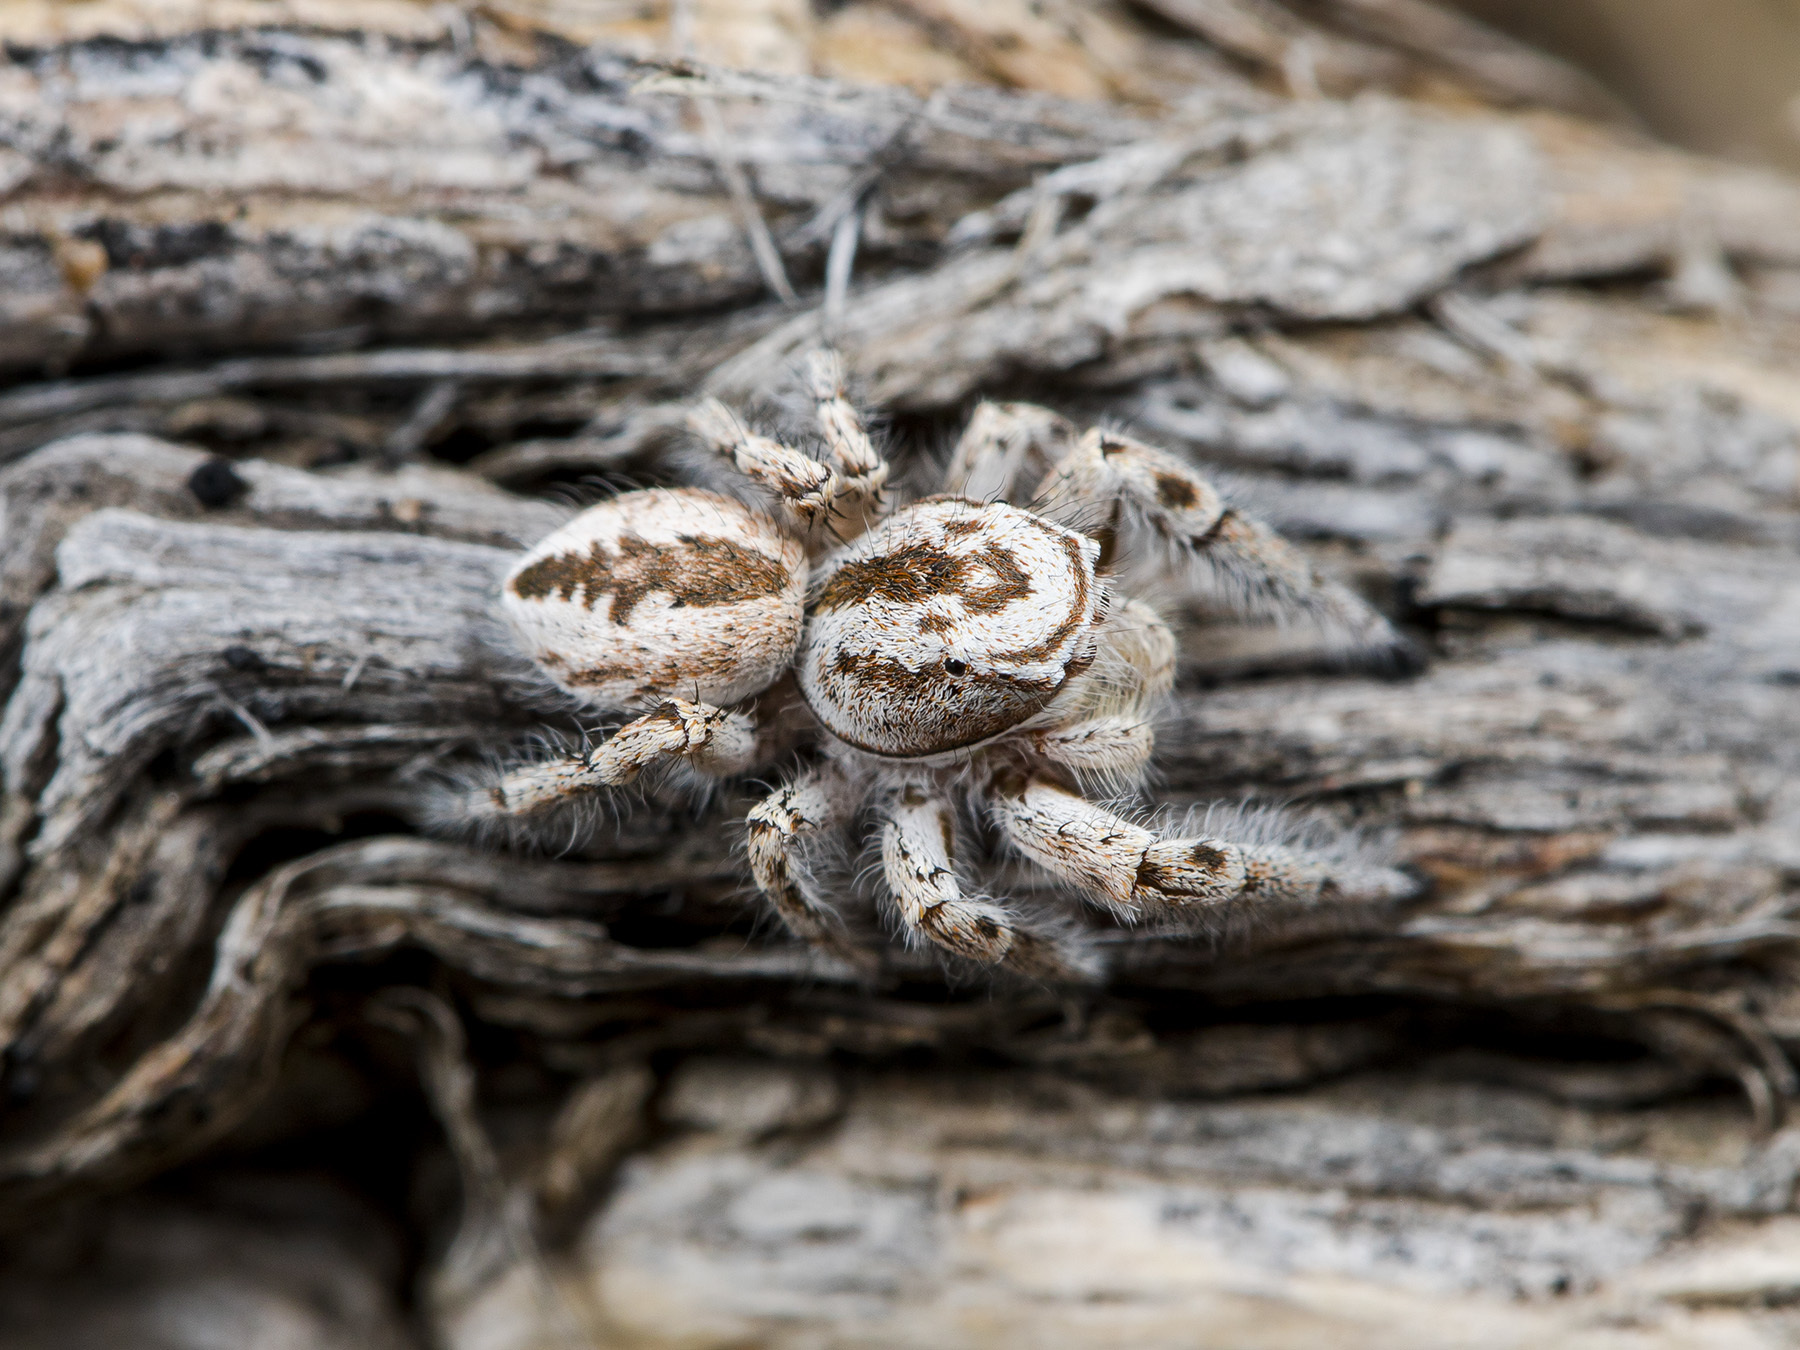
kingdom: Animalia
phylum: Arthropoda
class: Arachnida
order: Araneae
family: Salticidae
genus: Pseudomogrus
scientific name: Pseudomogrus zhilgaensis
